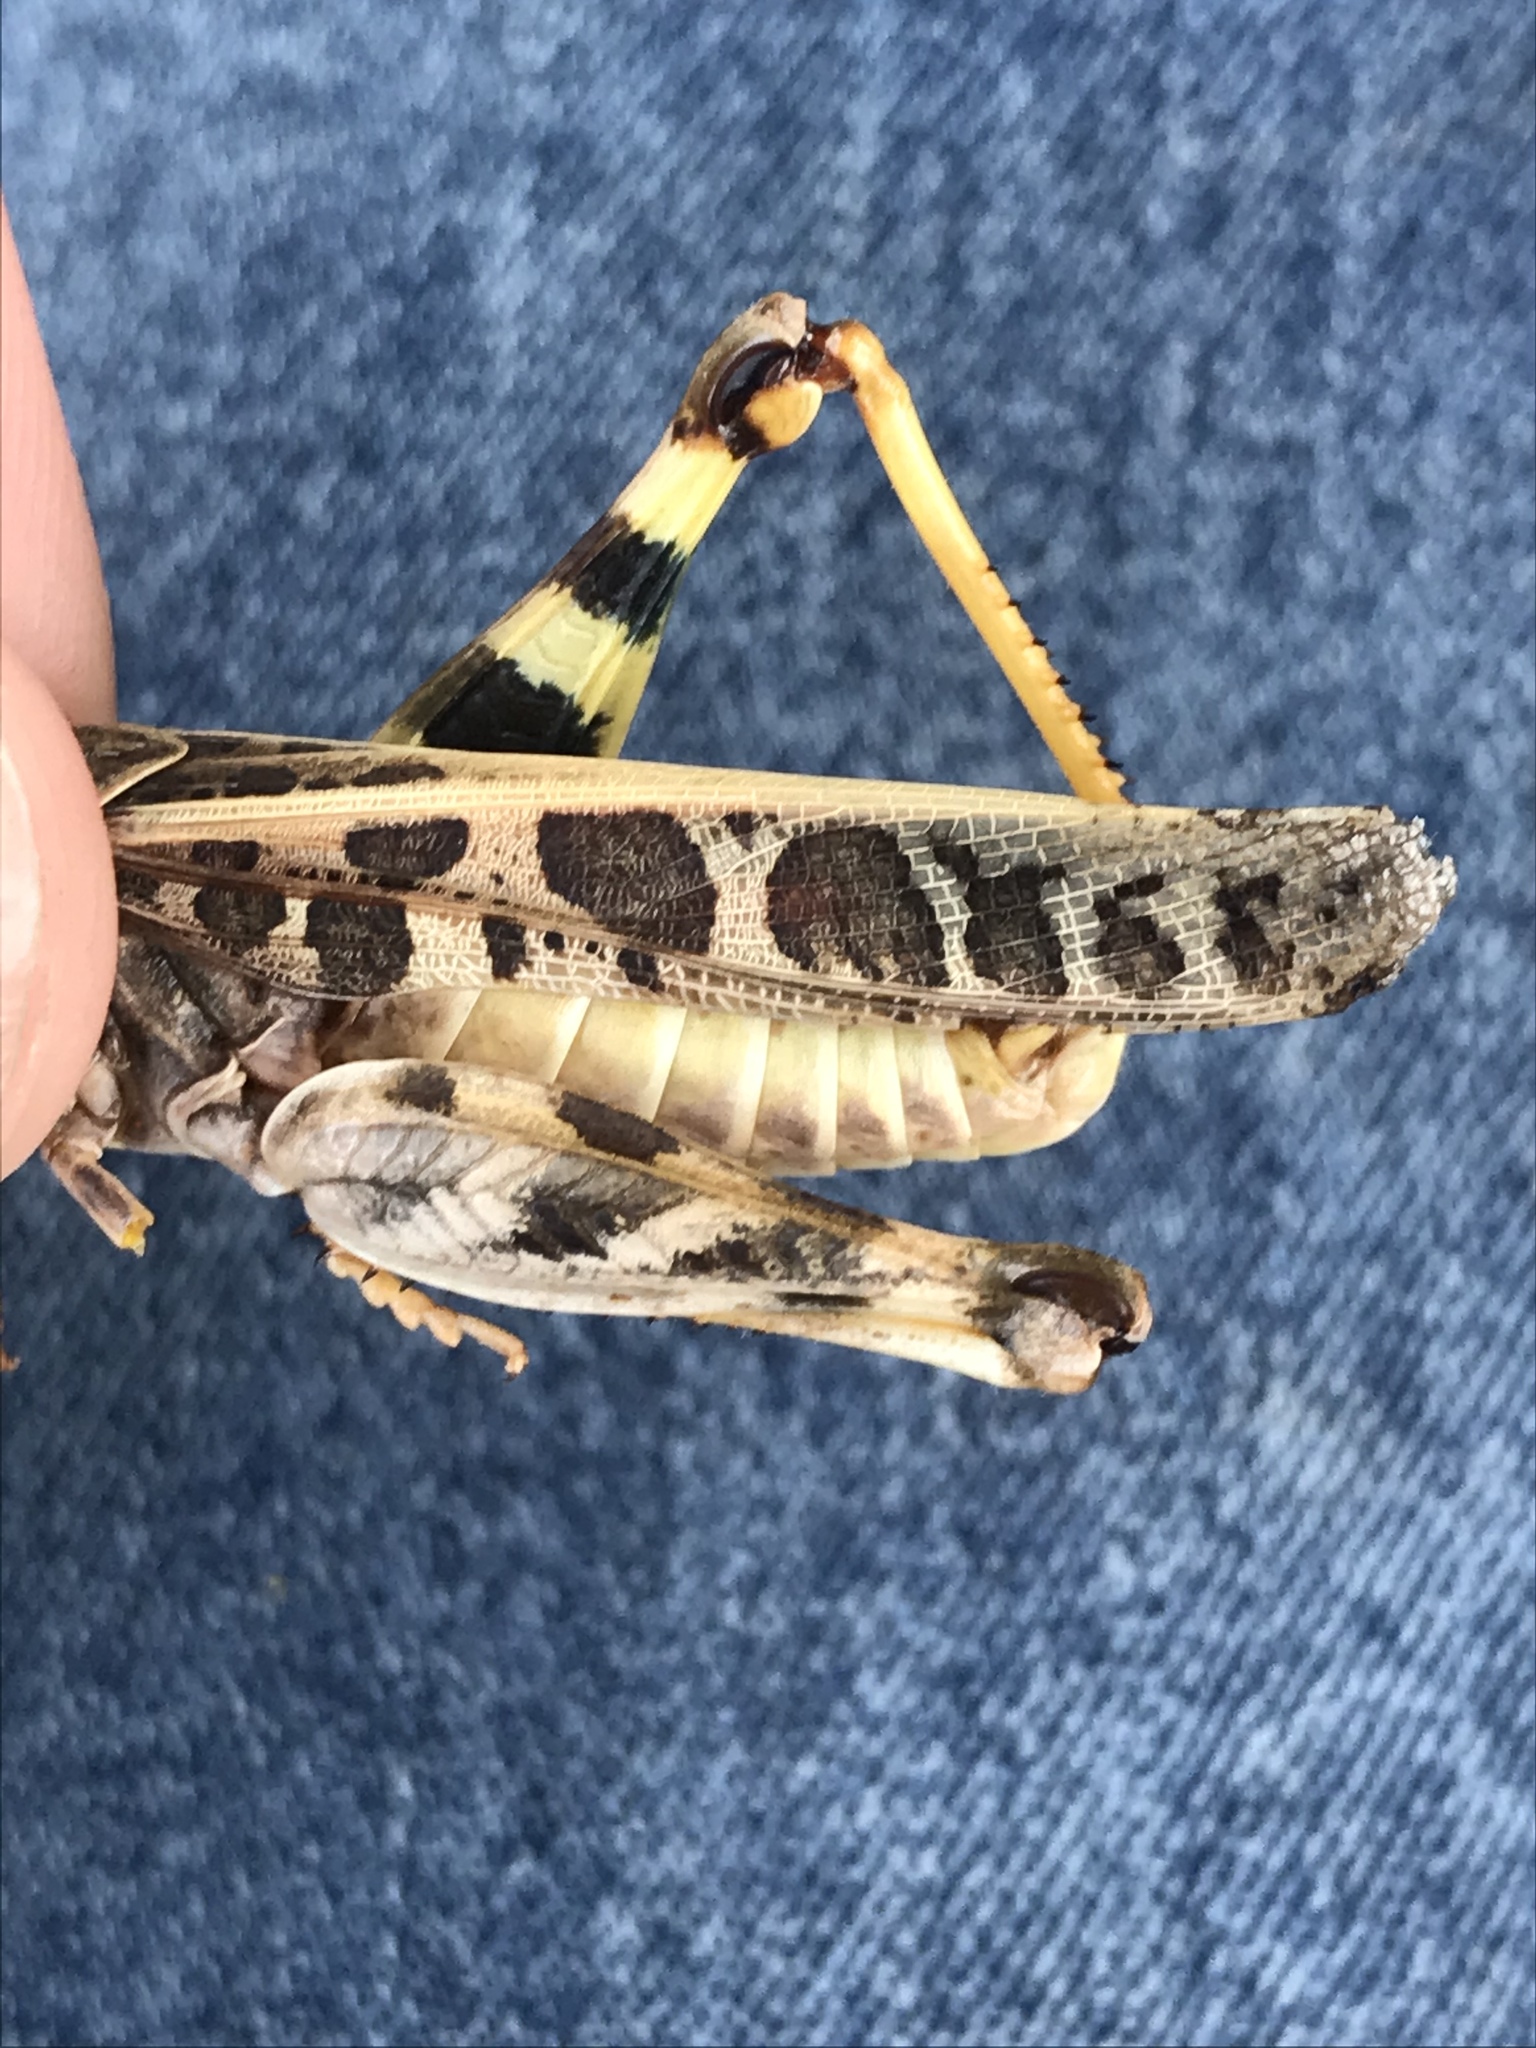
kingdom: Animalia
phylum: Arthropoda
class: Insecta
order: Orthoptera
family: Acrididae
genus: Hippiscus
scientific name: Hippiscus ocelote
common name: Wrinkled grasshopper
